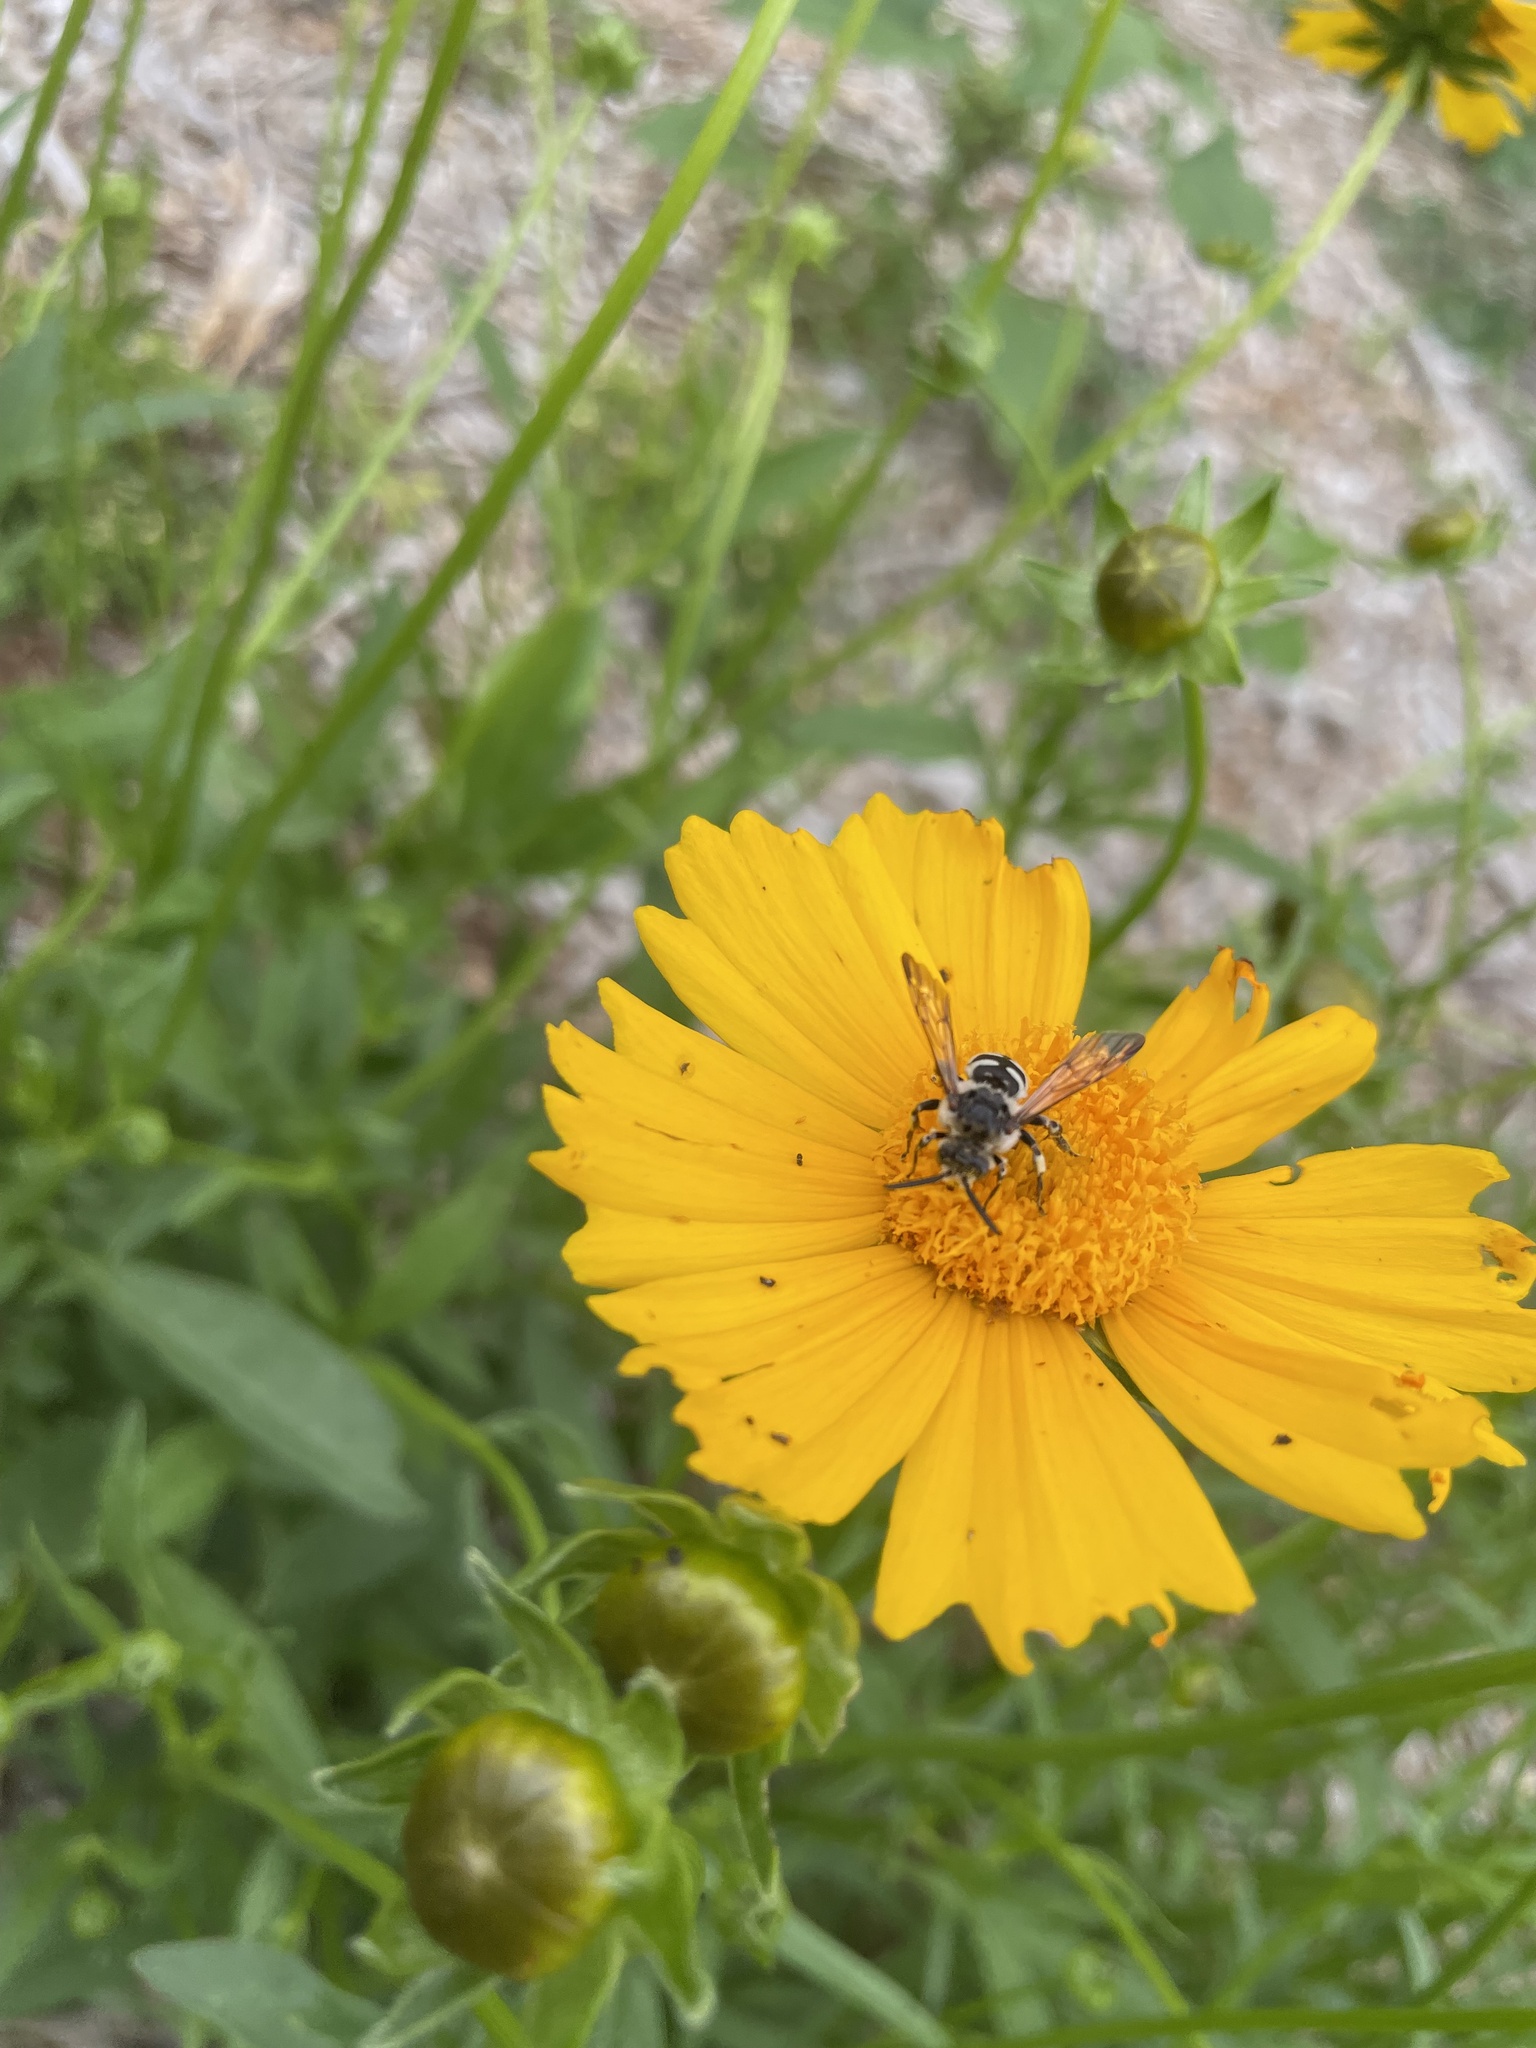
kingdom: Animalia
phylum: Arthropoda
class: Insecta
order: Hymenoptera
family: Apidae
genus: Brachymelecta
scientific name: Brachymelecta californica
